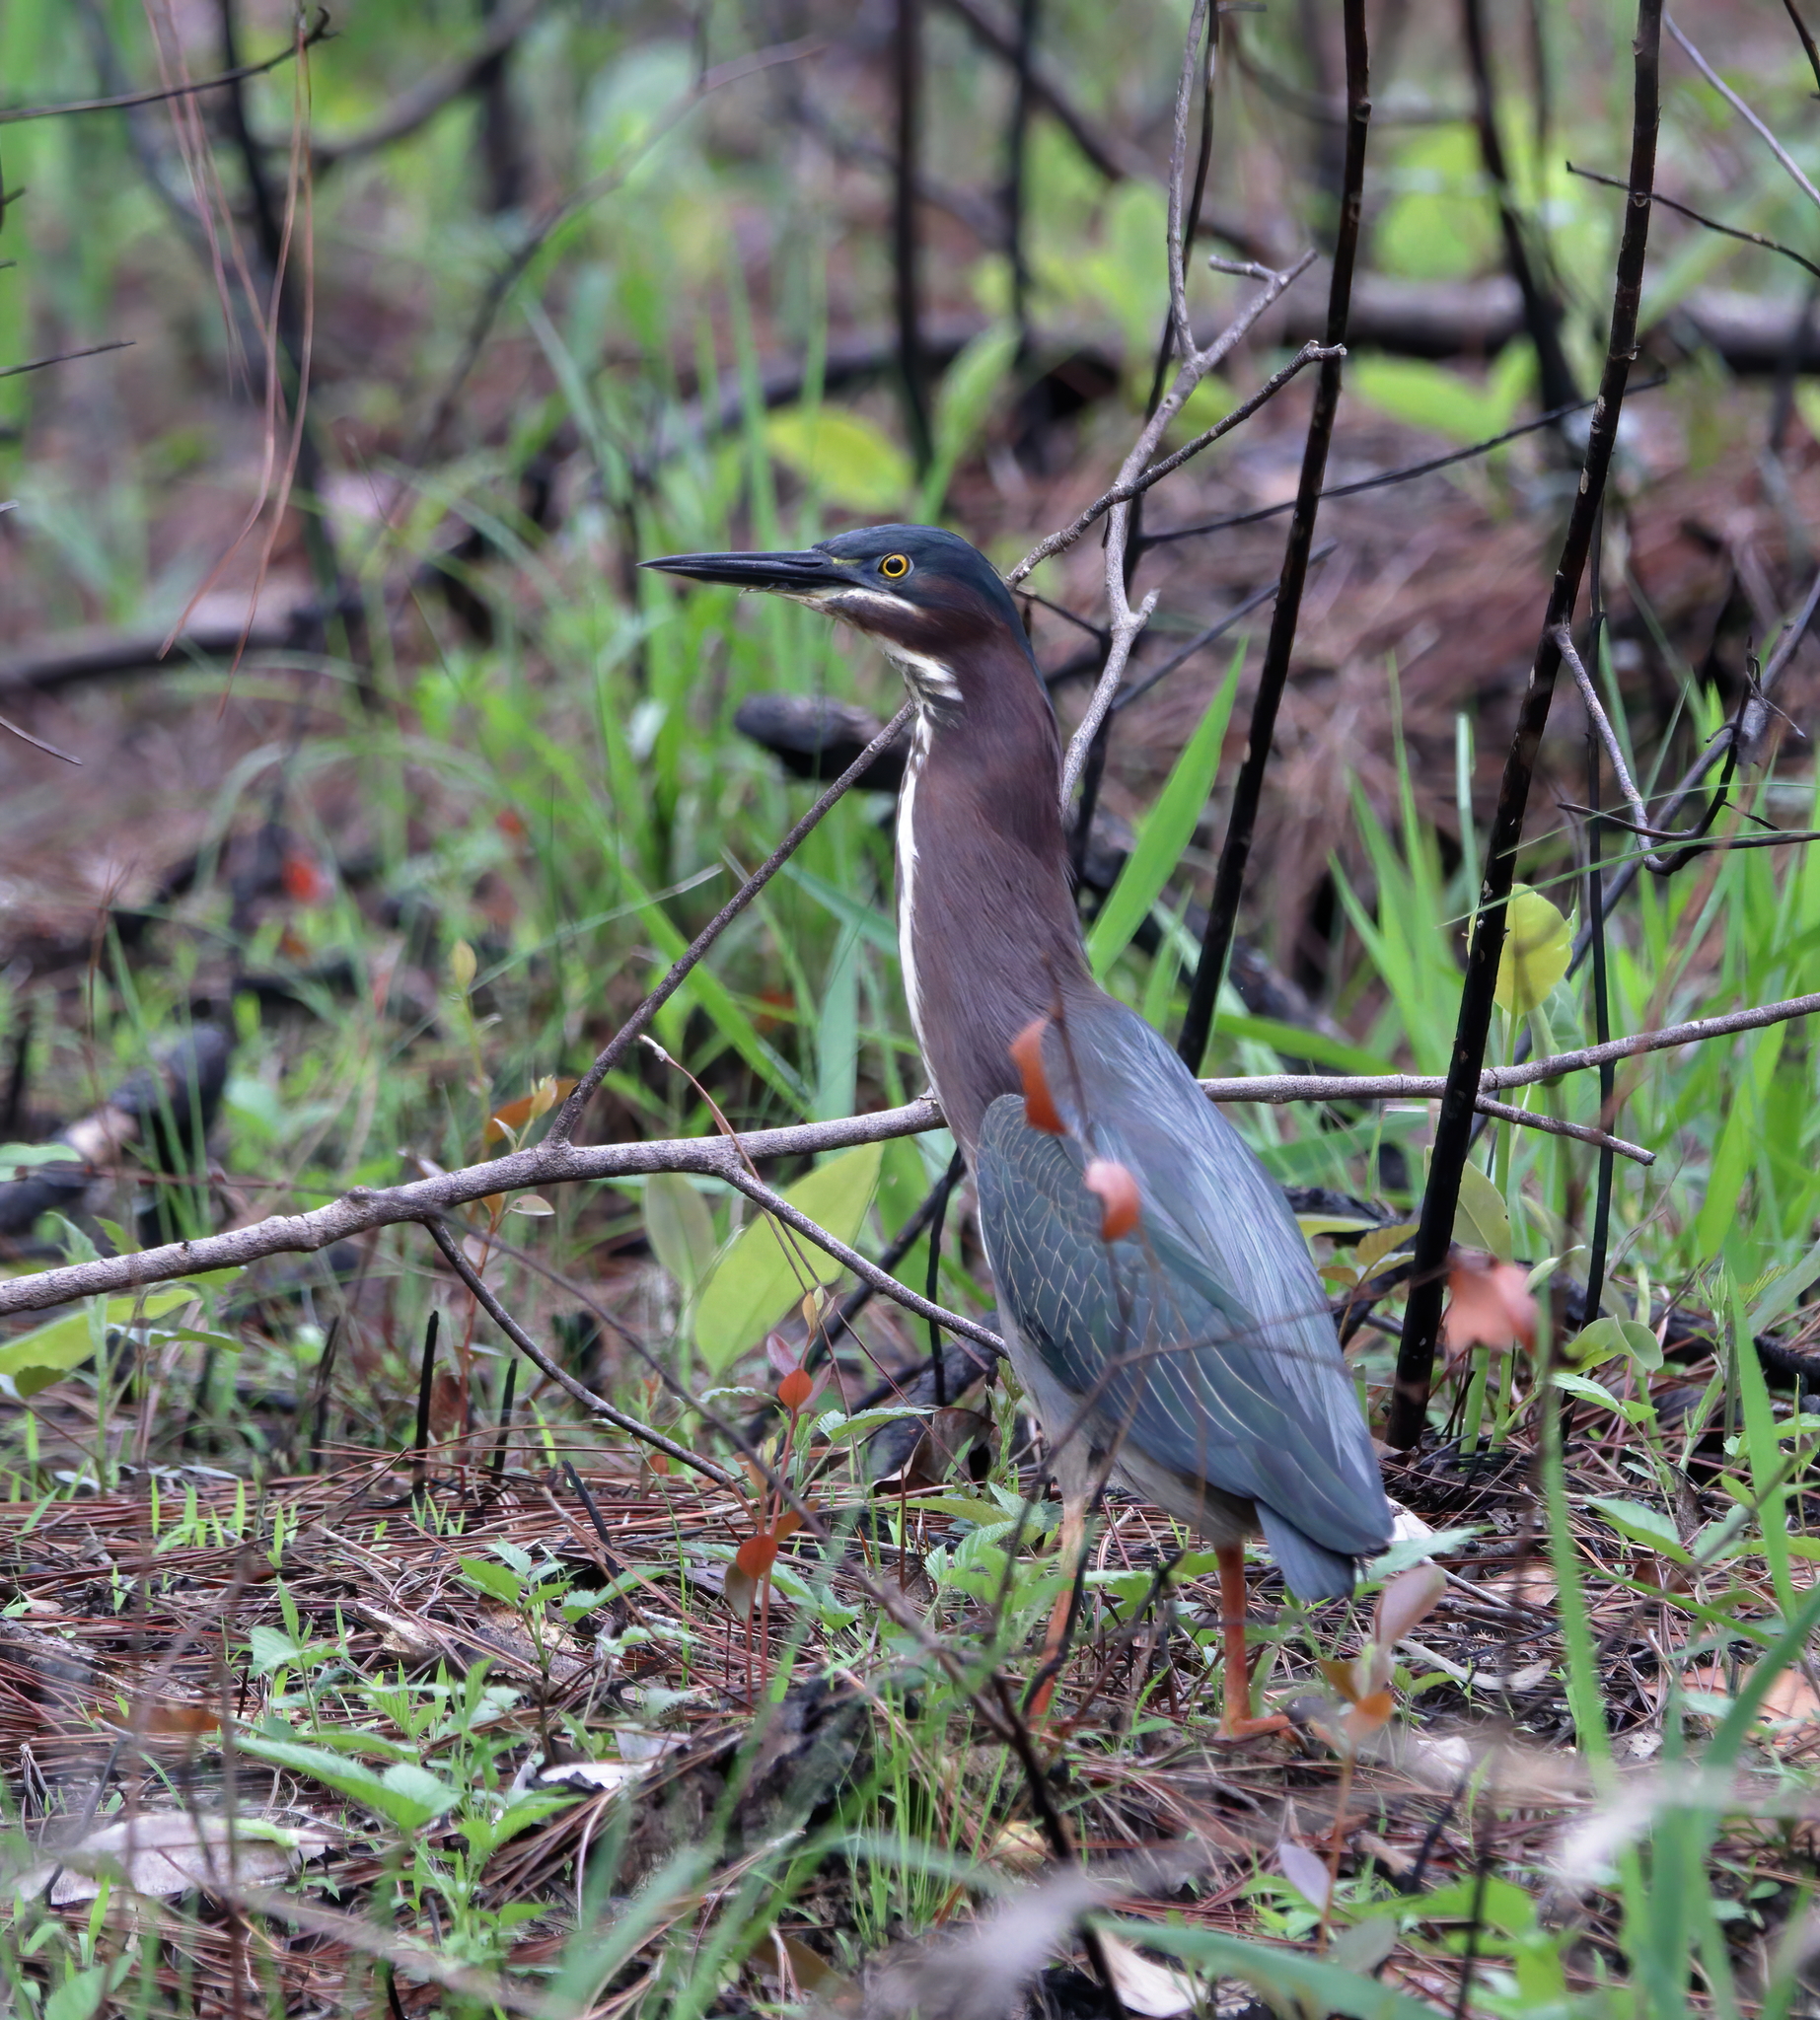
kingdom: Animalia
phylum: Chordata
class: Aves
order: Pelecaniformes
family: Ardeidae
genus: Butorides
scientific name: Butorides virescens
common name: Green heron
